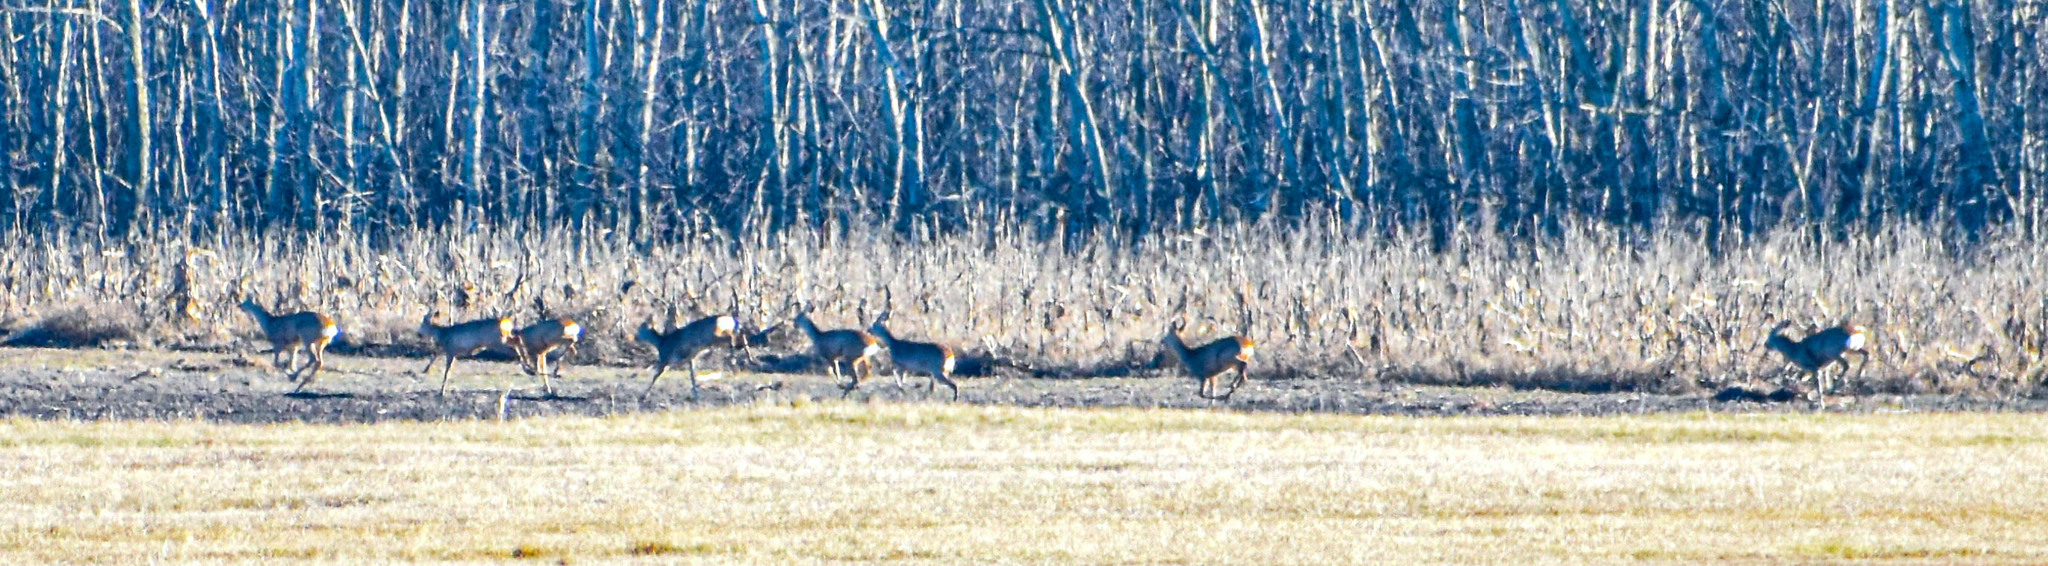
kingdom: Animalia
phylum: Chordata
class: Mammalia
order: Artiodactyla
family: Cervidae
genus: Capreolus
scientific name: Capreolus capreolus
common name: Western roe deer
